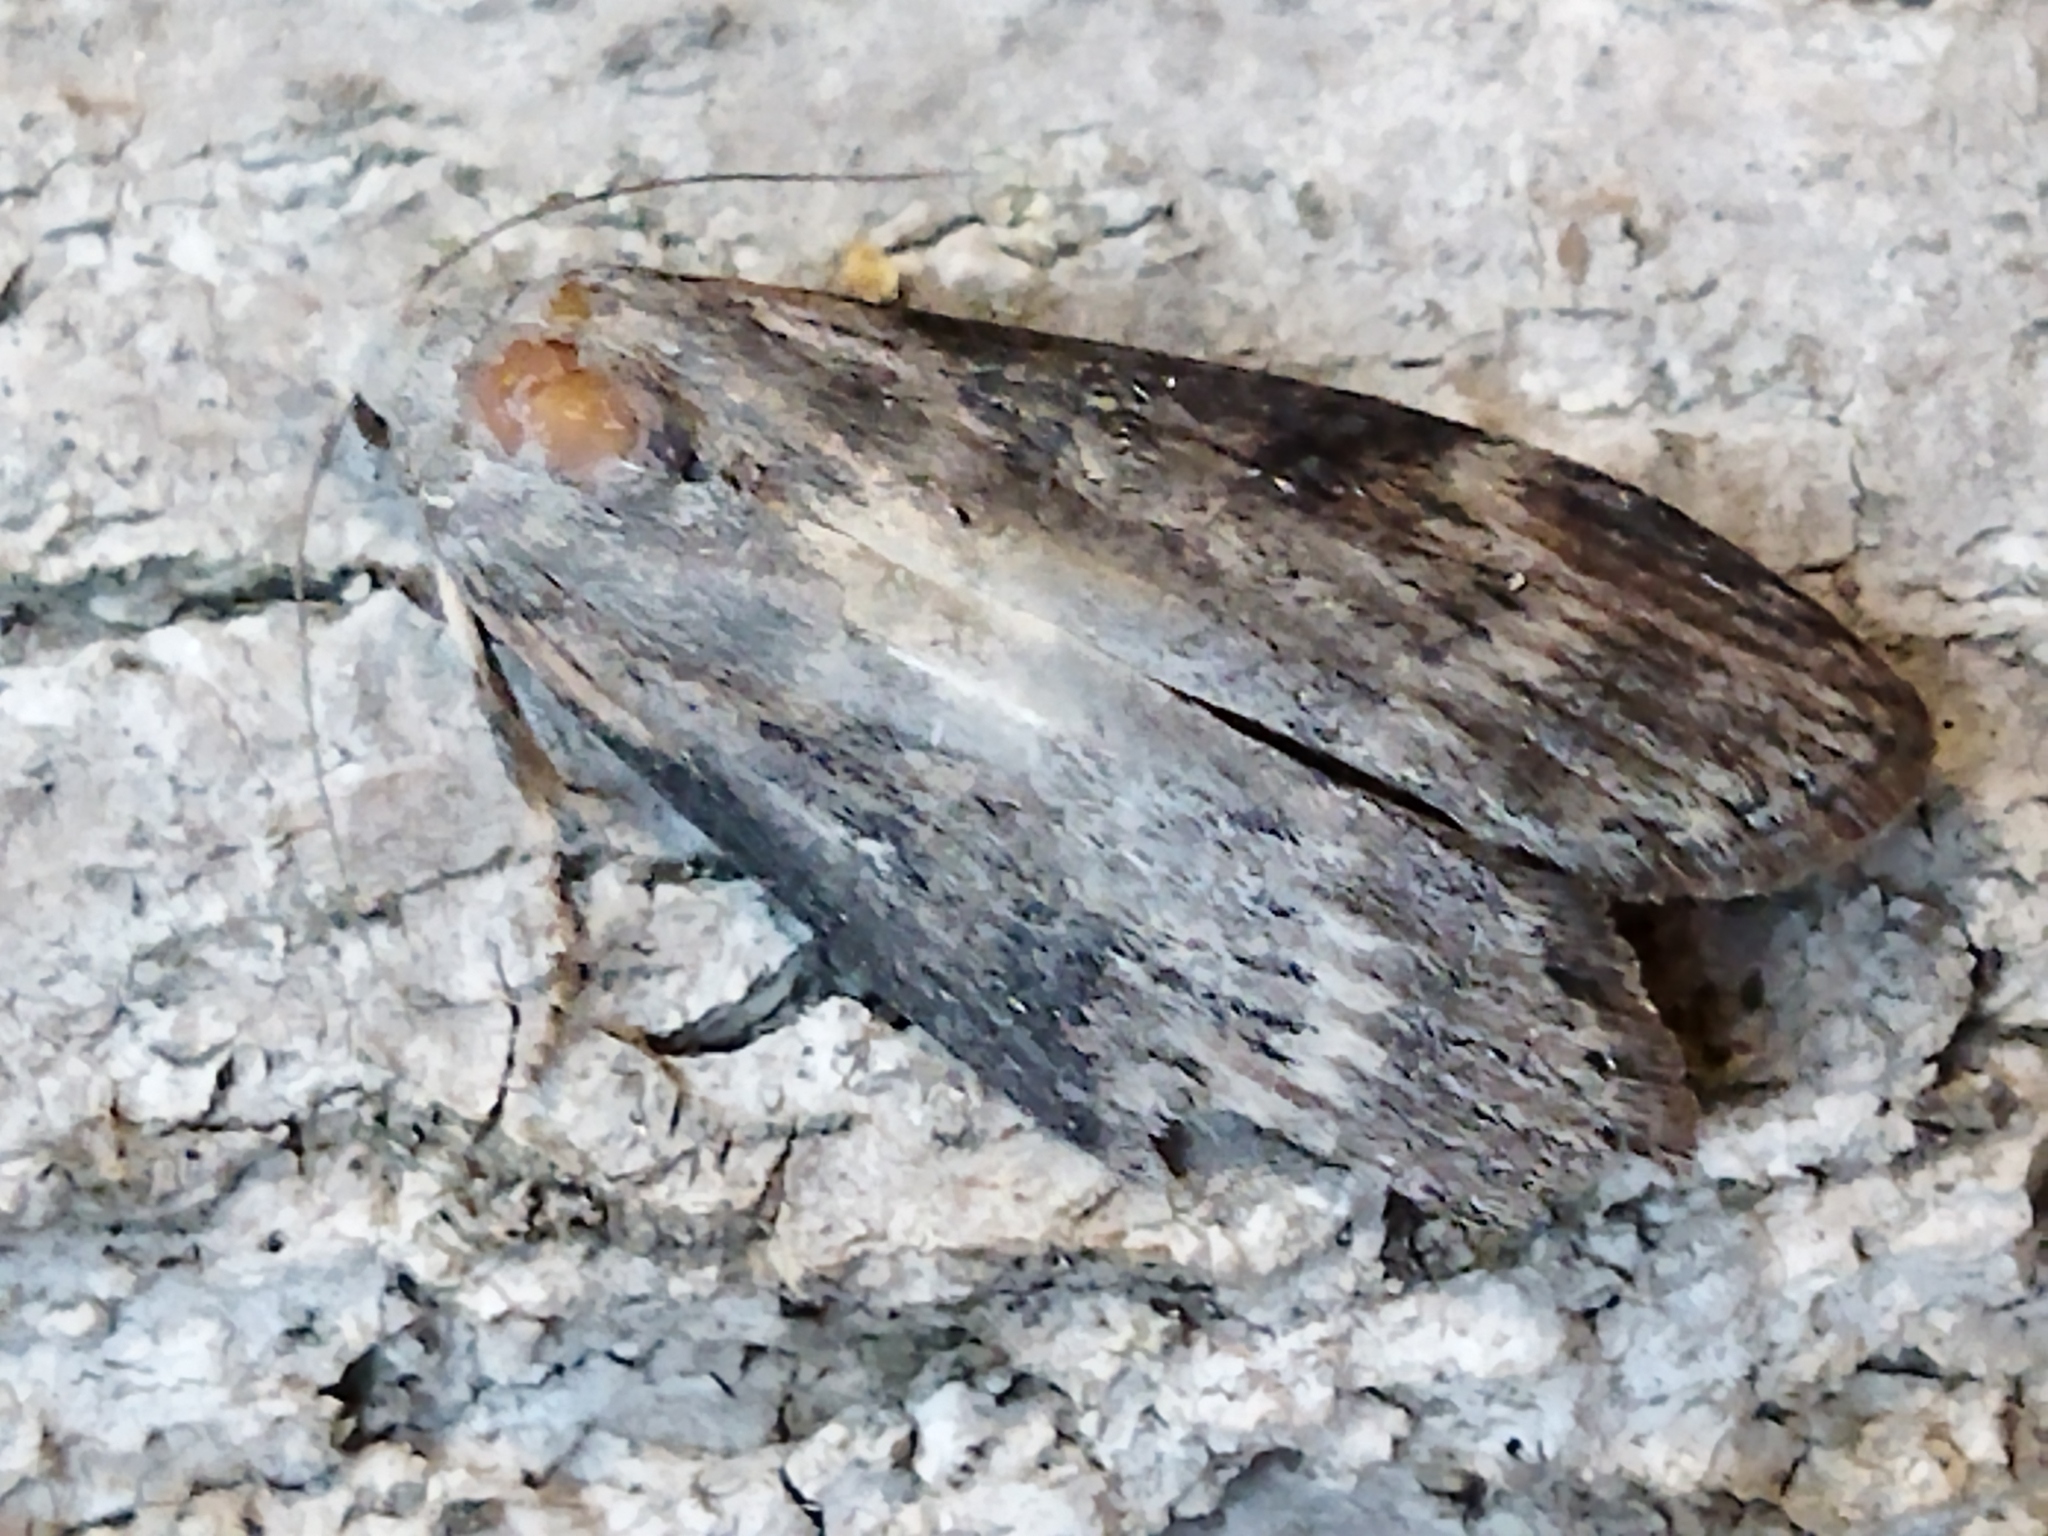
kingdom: Animalia
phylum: Arthropoda
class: Insecta
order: Lepidoptera
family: Pyralidae
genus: Lamoria
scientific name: Lamoria anella
